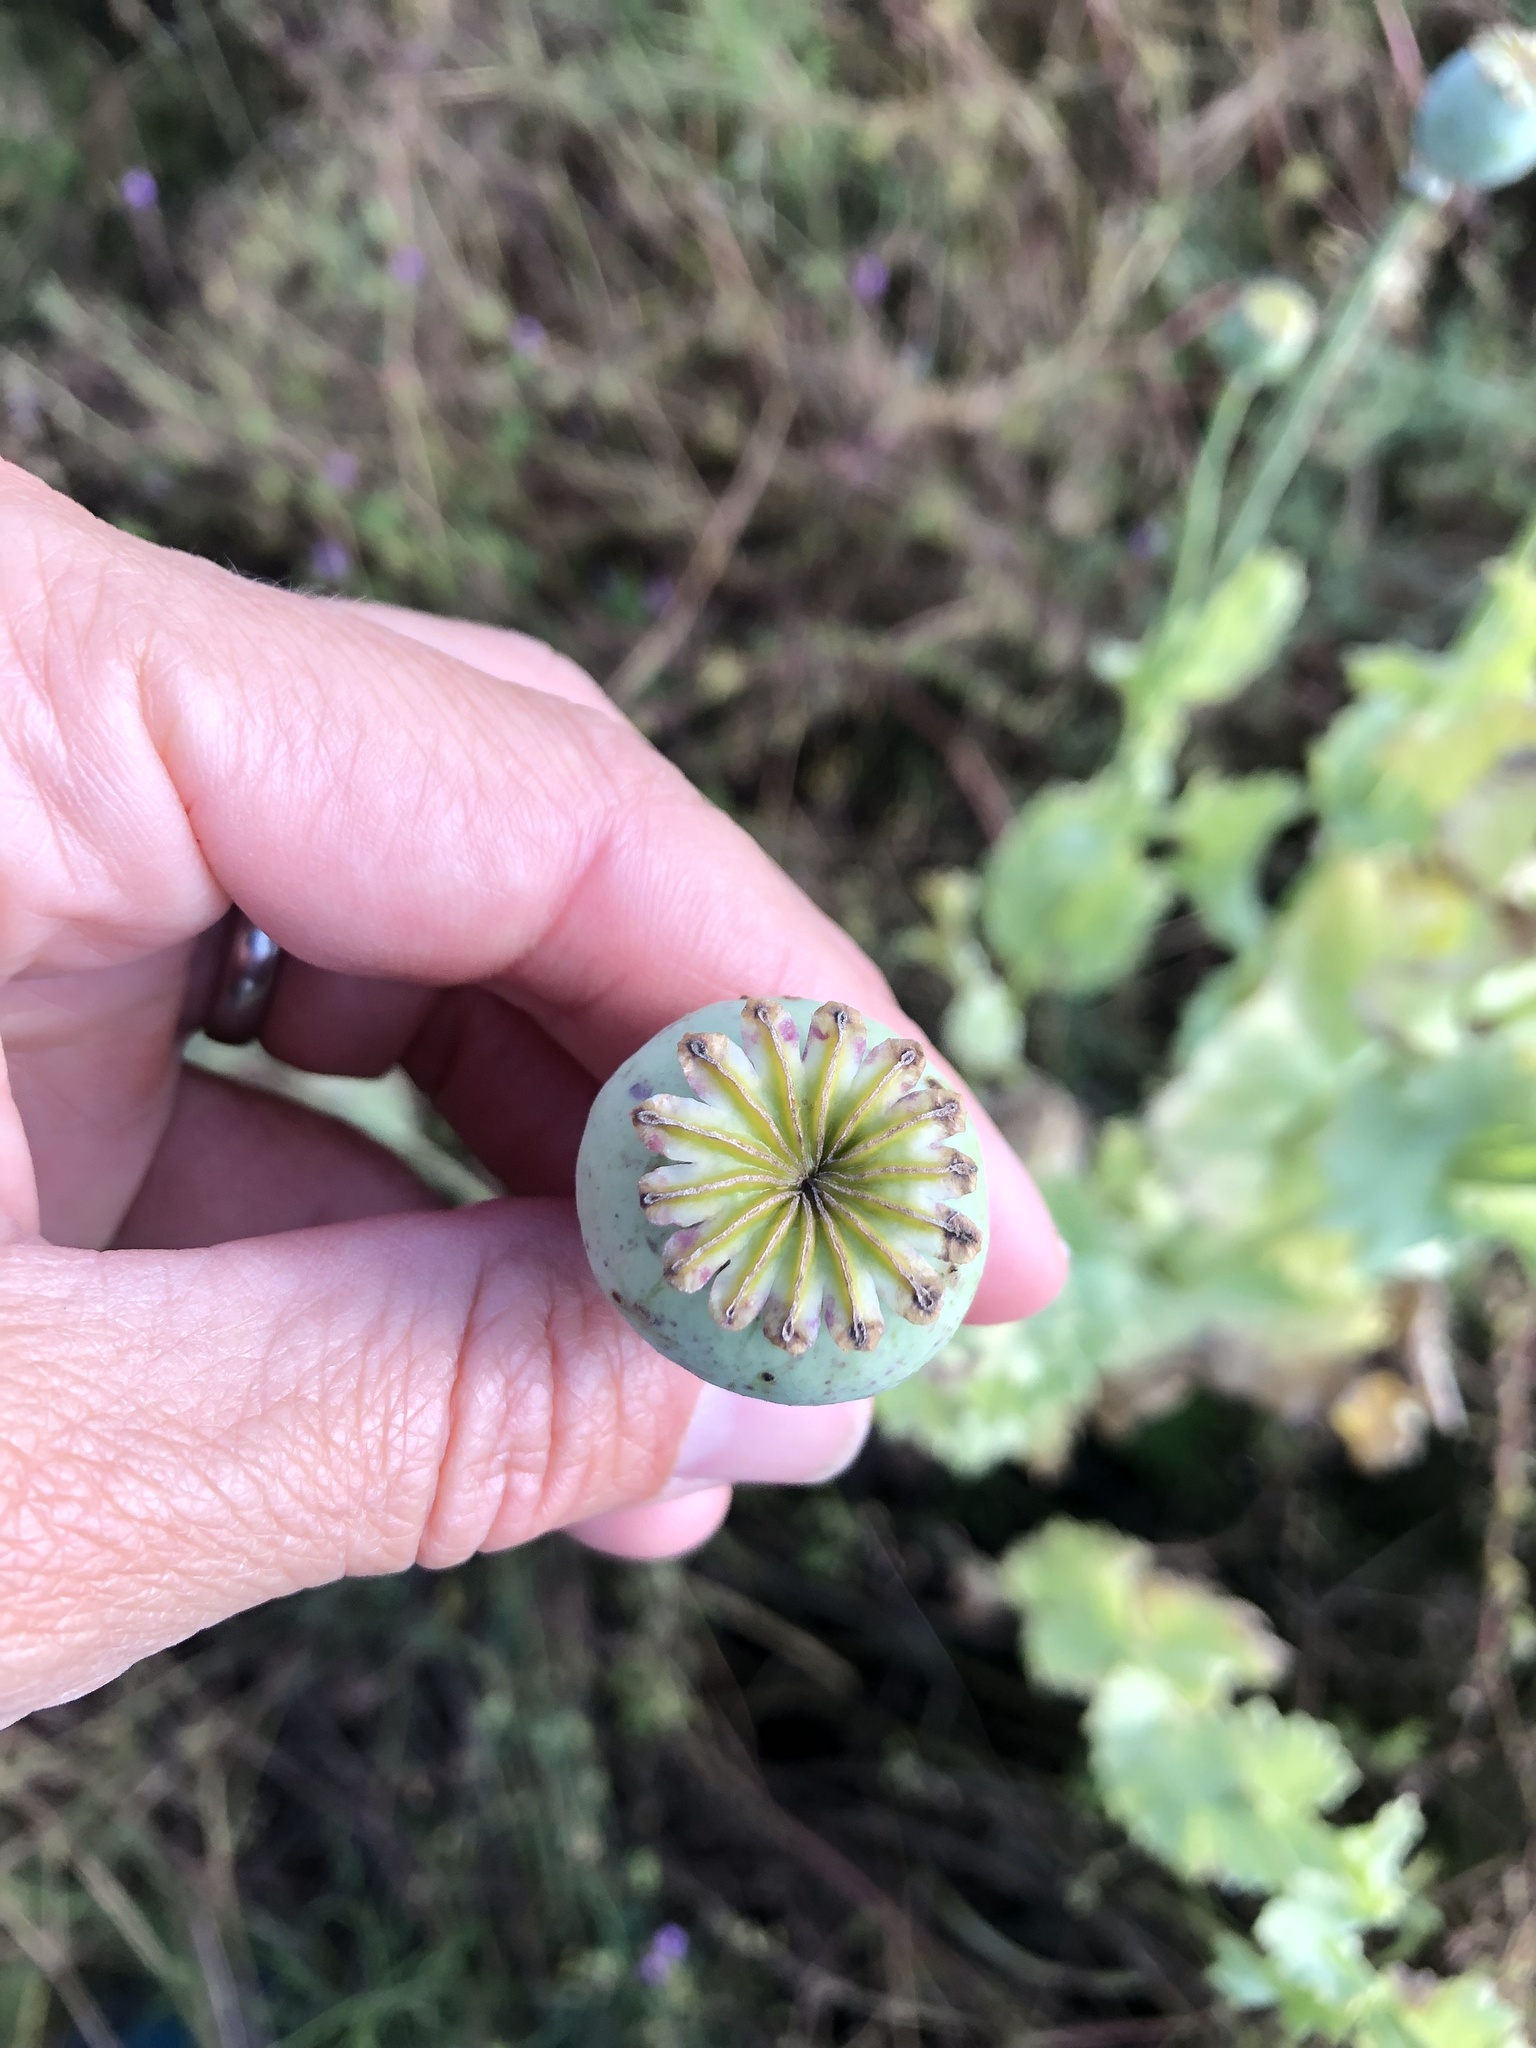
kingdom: Plantae
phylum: Tracheophyta
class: Magnoliopsida
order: Ranunculales
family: Papaveraceae
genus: Papaver
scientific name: Papaver somniferum
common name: Opium poppy
